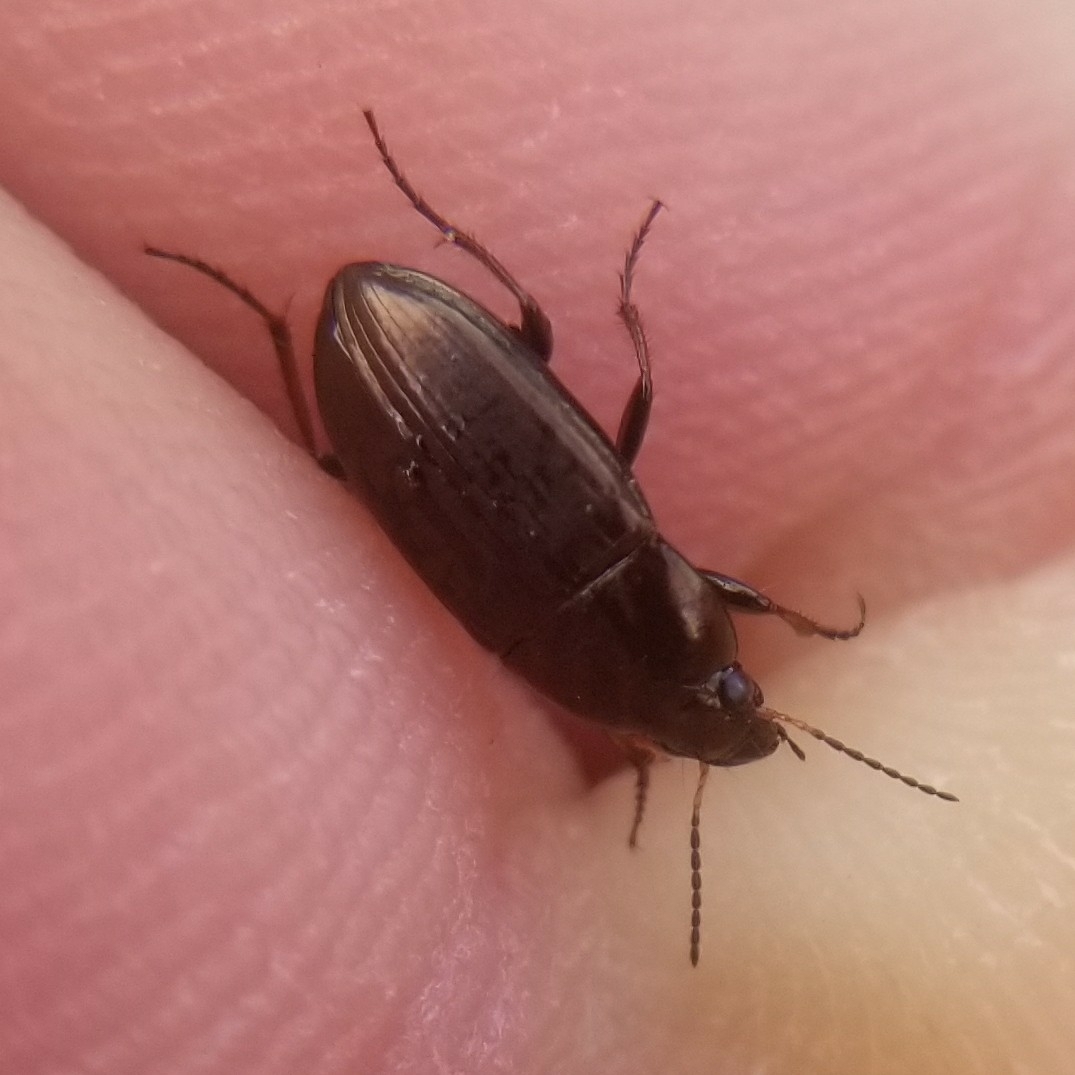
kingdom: Animalia
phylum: Arthropoda
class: Insecta
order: Coleoptera
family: Carabidae
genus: Amara
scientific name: Amara aenea
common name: Common sun beetle
